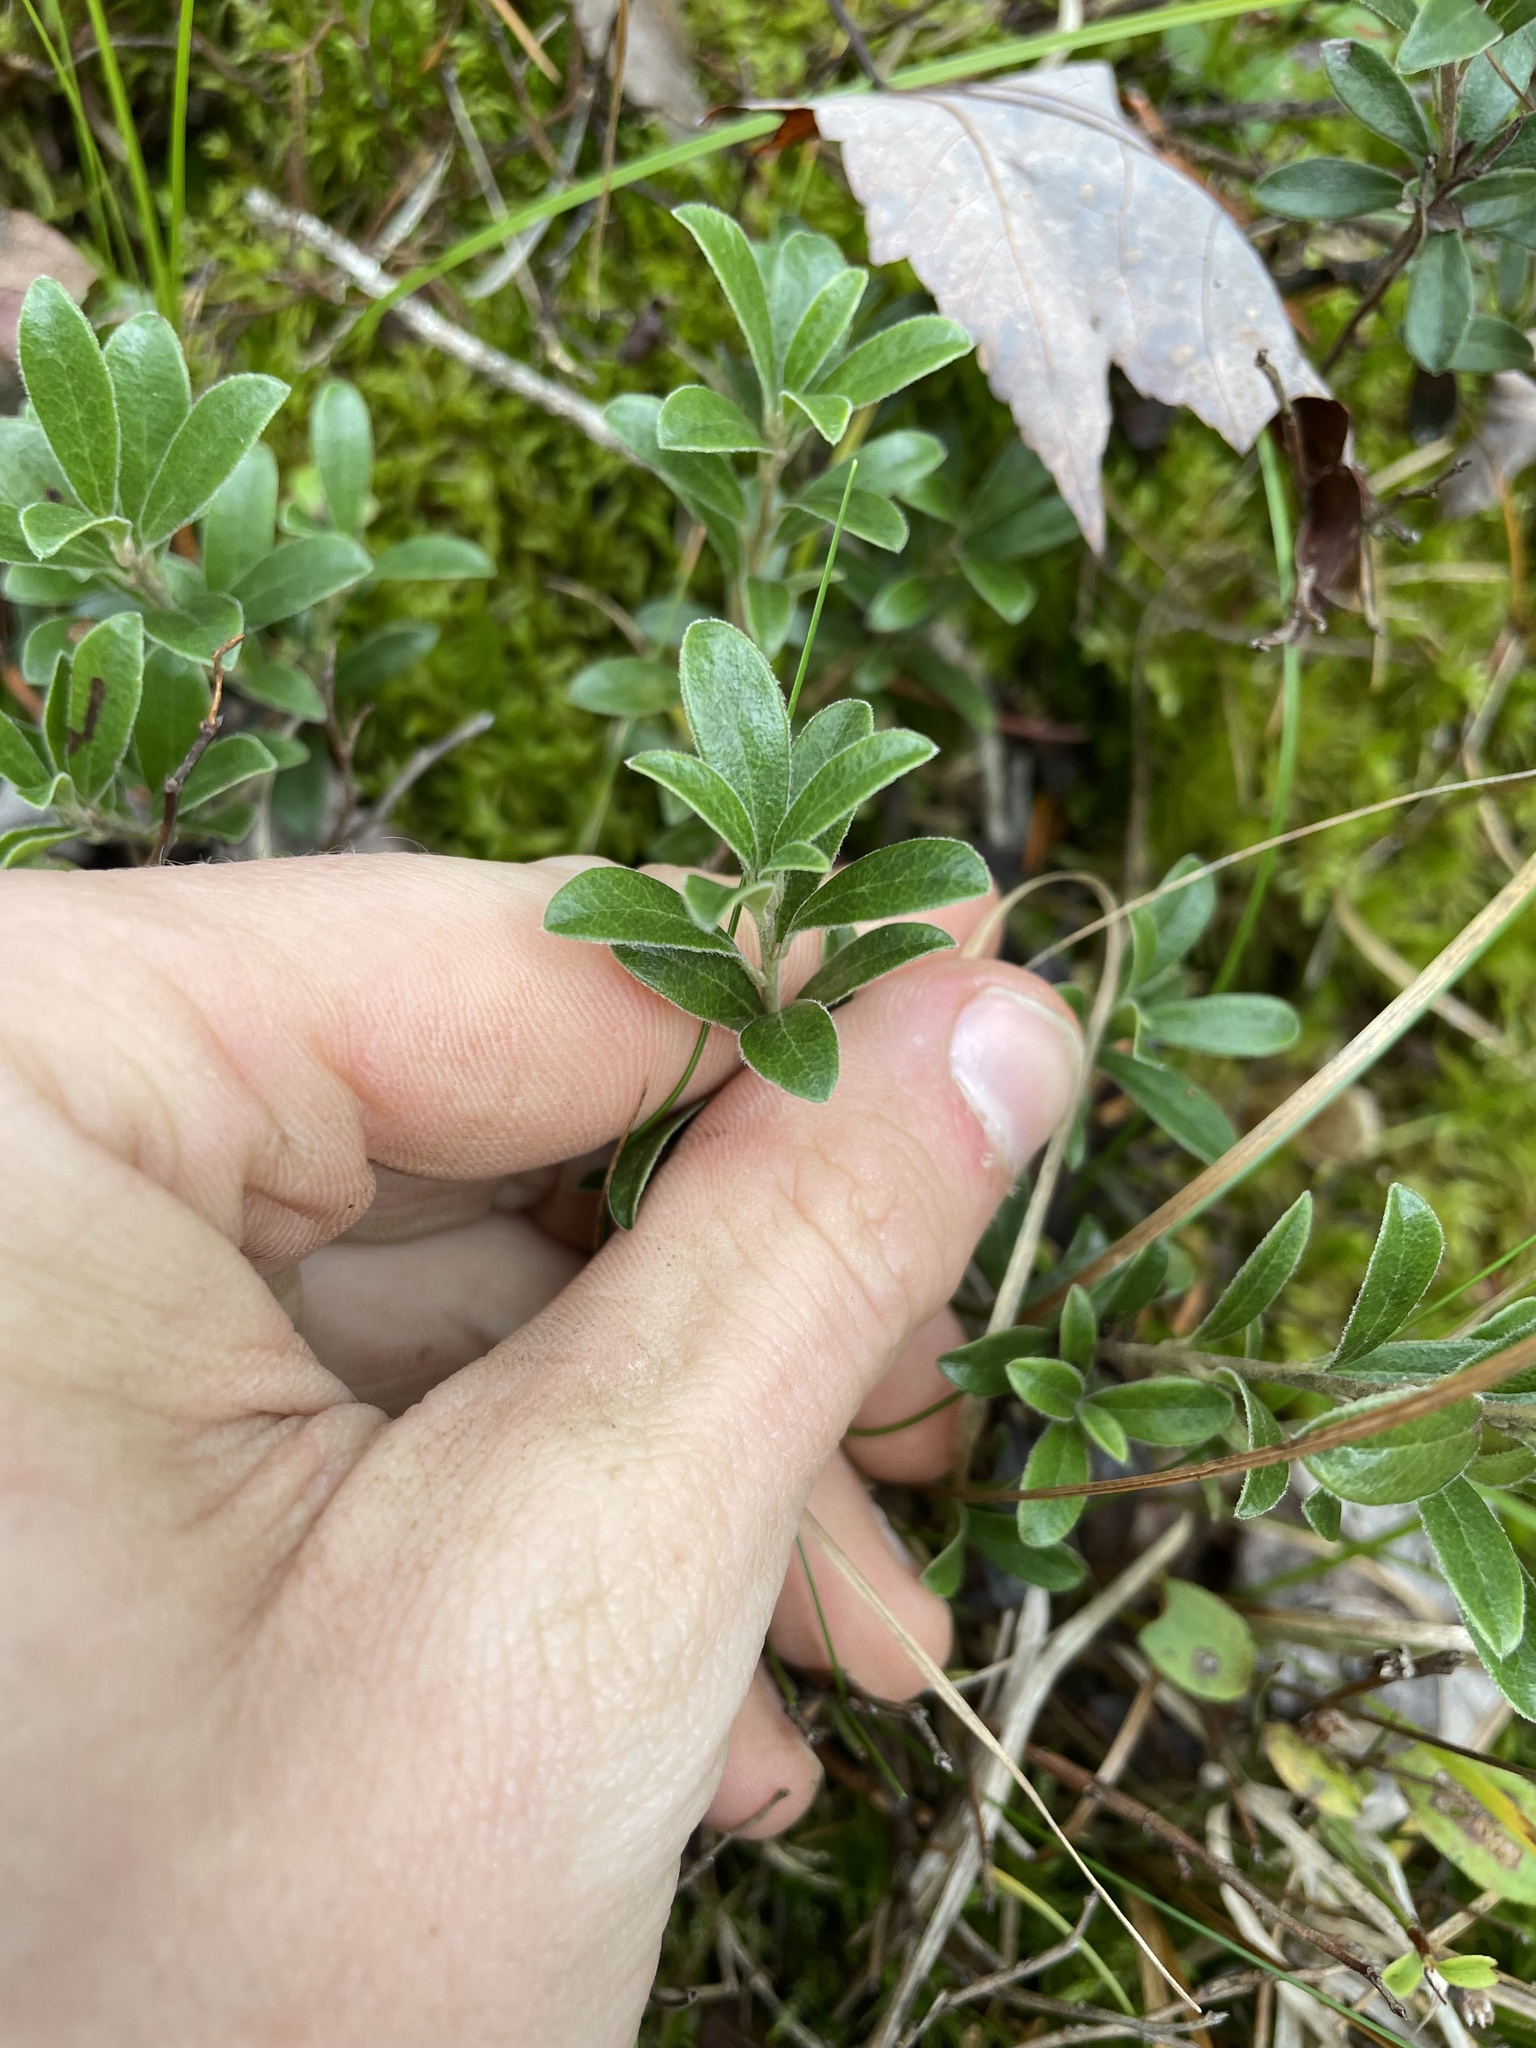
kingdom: Plantae
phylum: Tracheophyta
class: Magnoliopsida
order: Ericales
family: Ericaceae
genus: Arctostaphylos
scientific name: Arctostaphylos uva-ursi
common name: Bearberry
